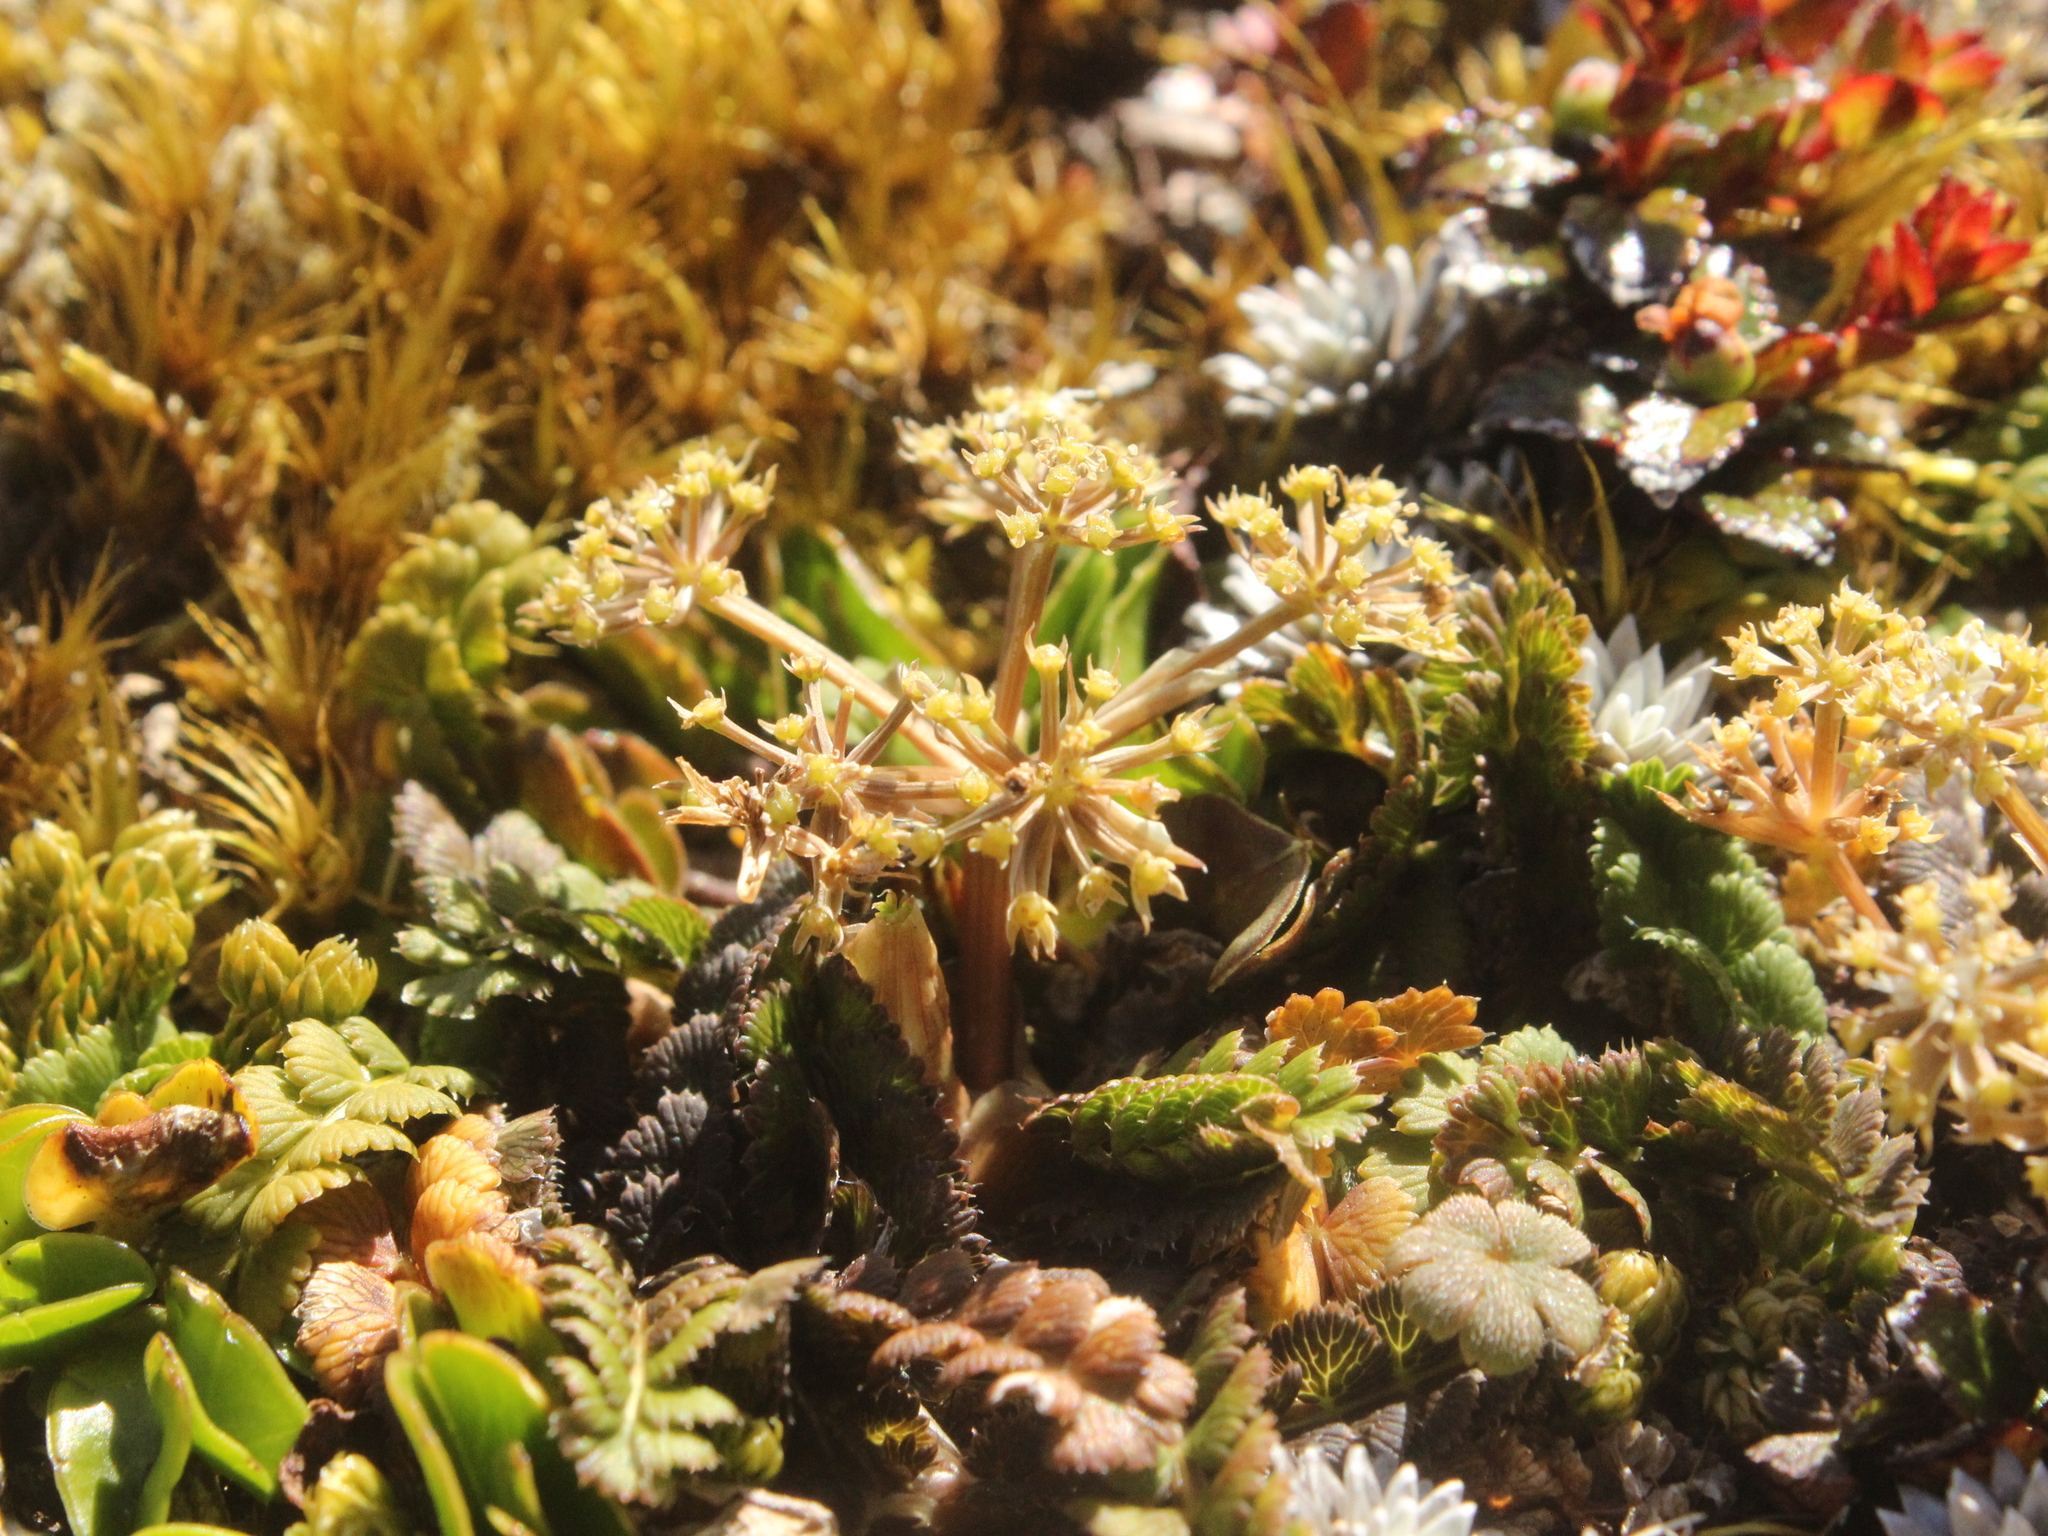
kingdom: Plantae
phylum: Tracheophyta
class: Magnoliopsida
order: Apiales
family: Apiaceae
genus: Anisotome
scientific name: Anisotome aromatica
